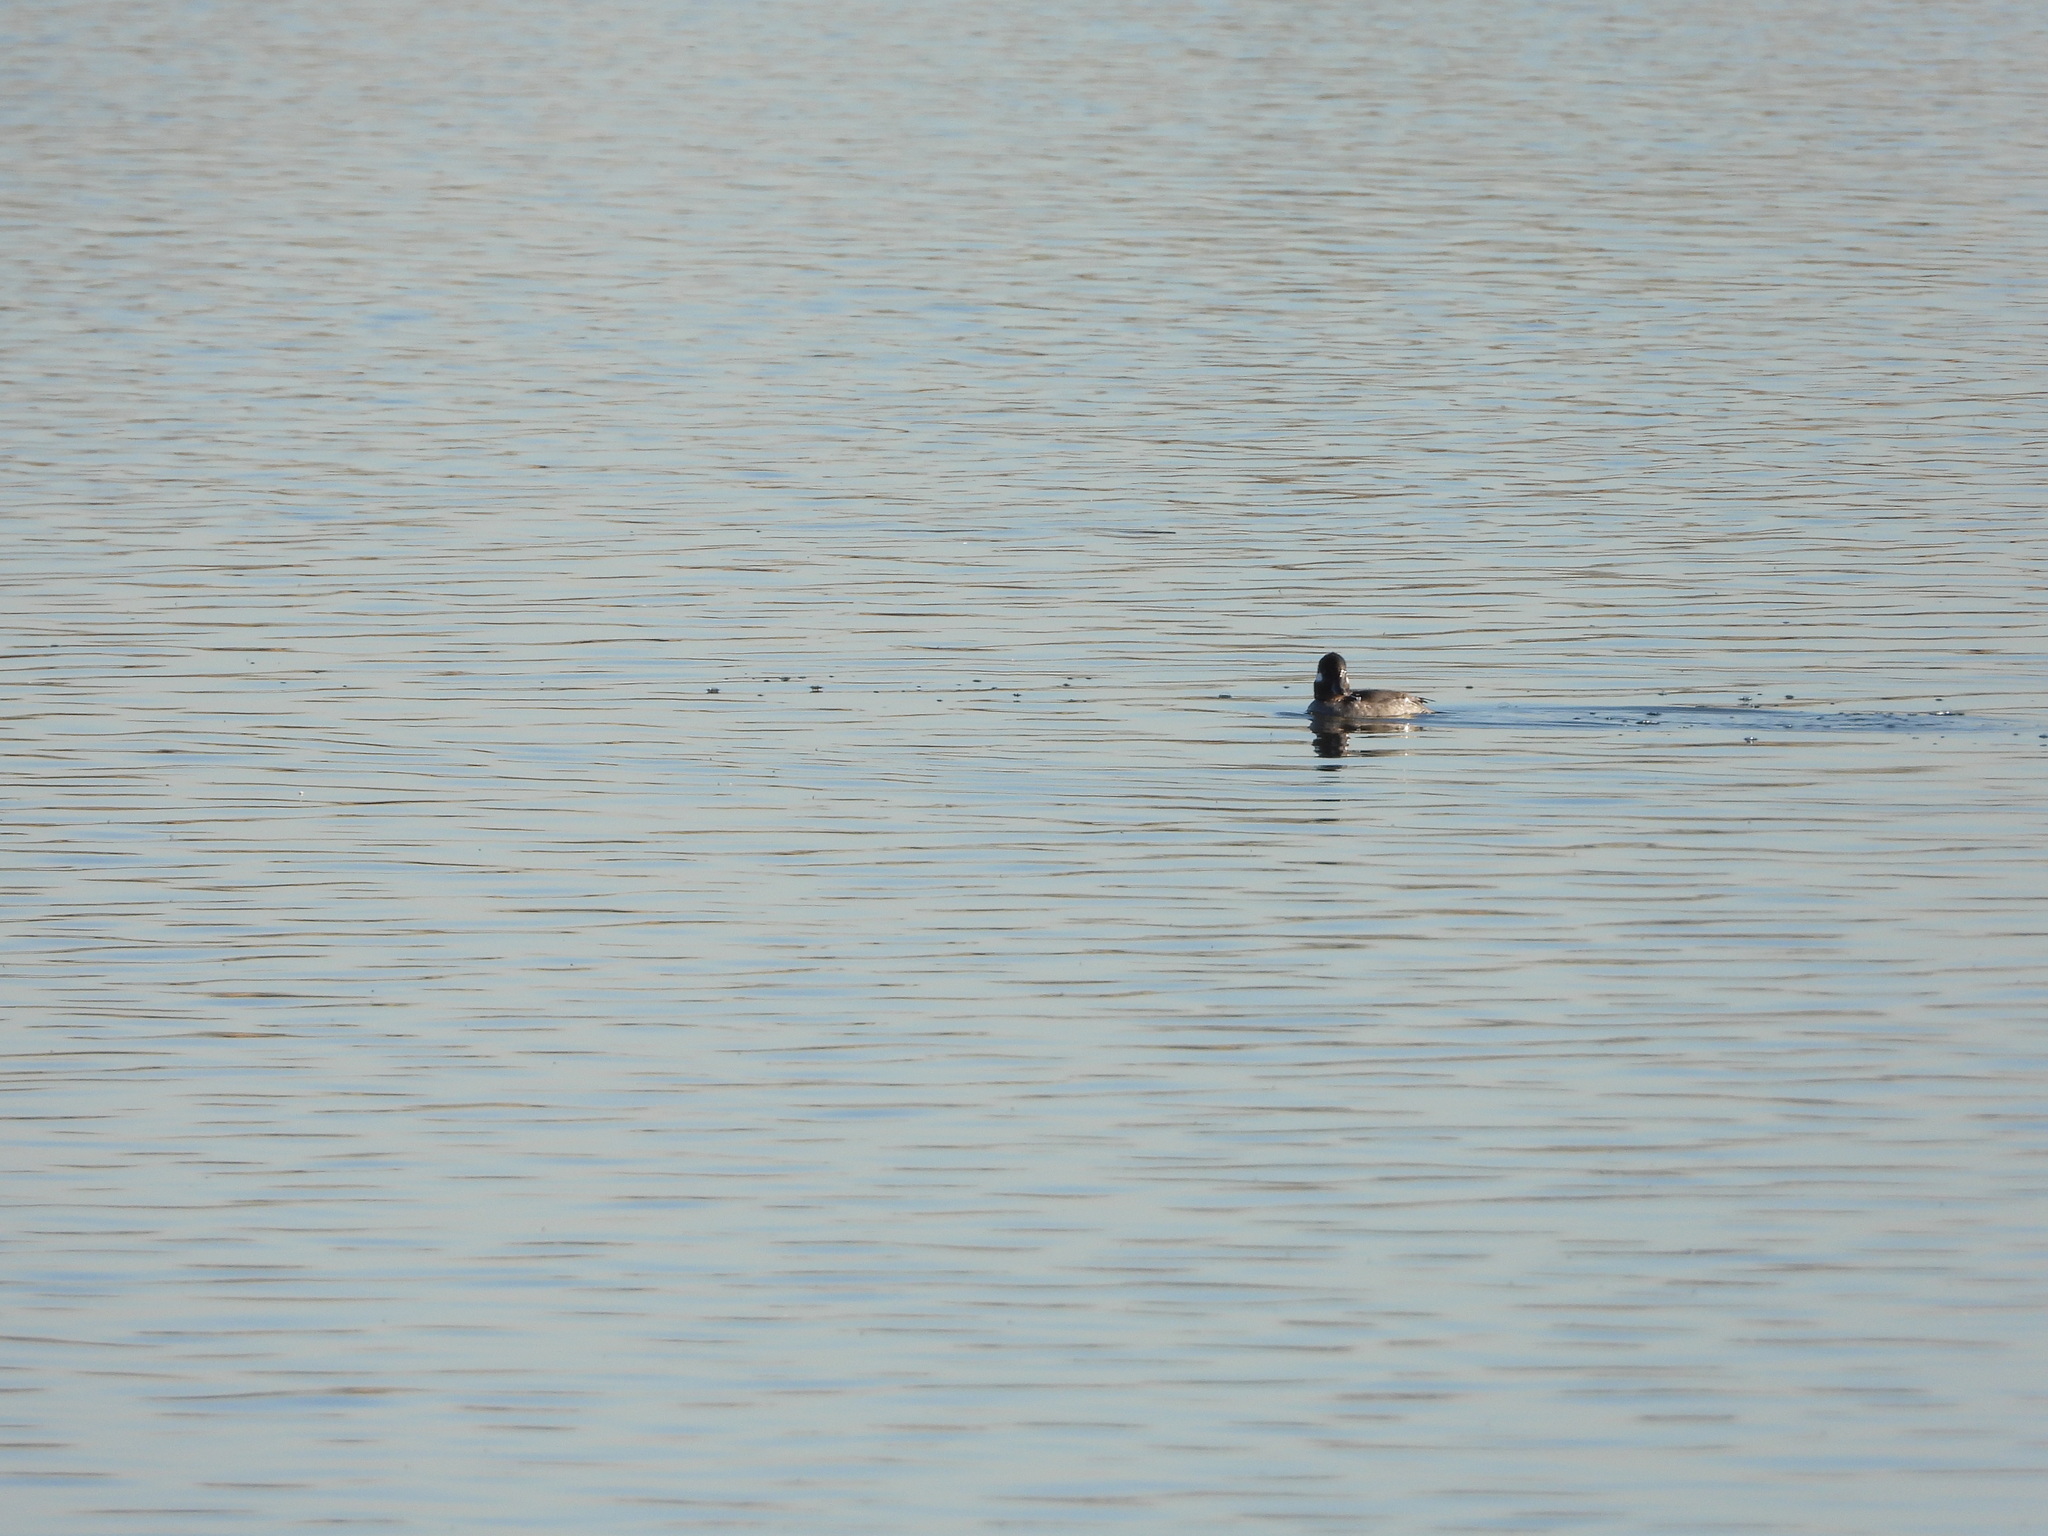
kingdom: Animalia
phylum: Chordata
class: Aves
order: Anseriformes
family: Anatidae
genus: Bucephala
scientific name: Bucephala albeola
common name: Bufflehead
